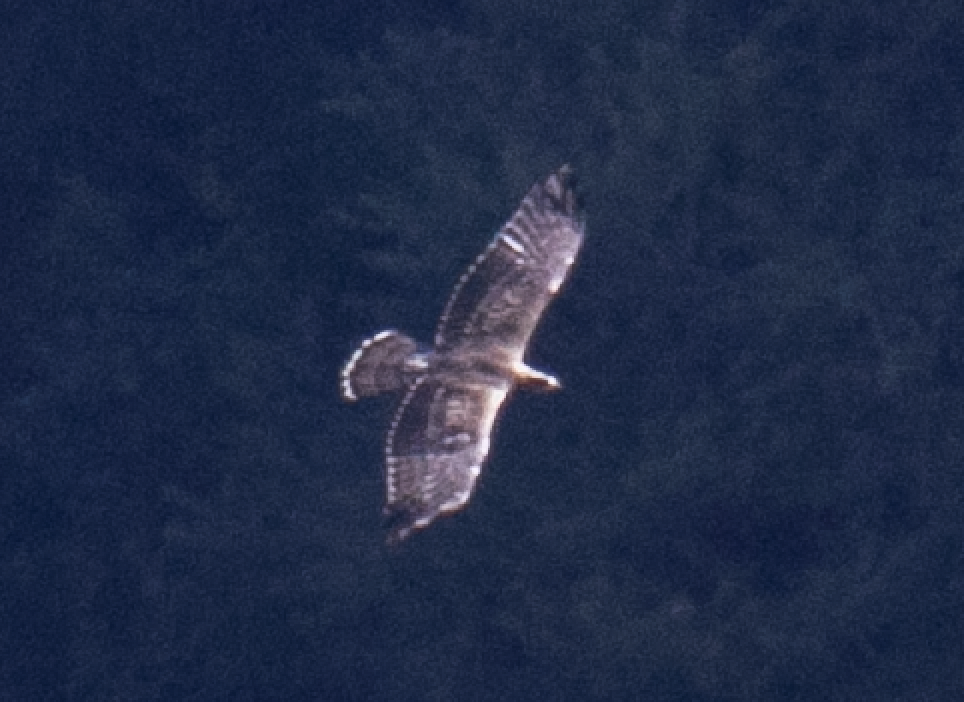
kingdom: Animalia
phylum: Chordata
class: Aves
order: Accipitriformes
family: Accipitridae
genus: Pernis
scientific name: Pernis apivorus
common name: European honey buzzard
